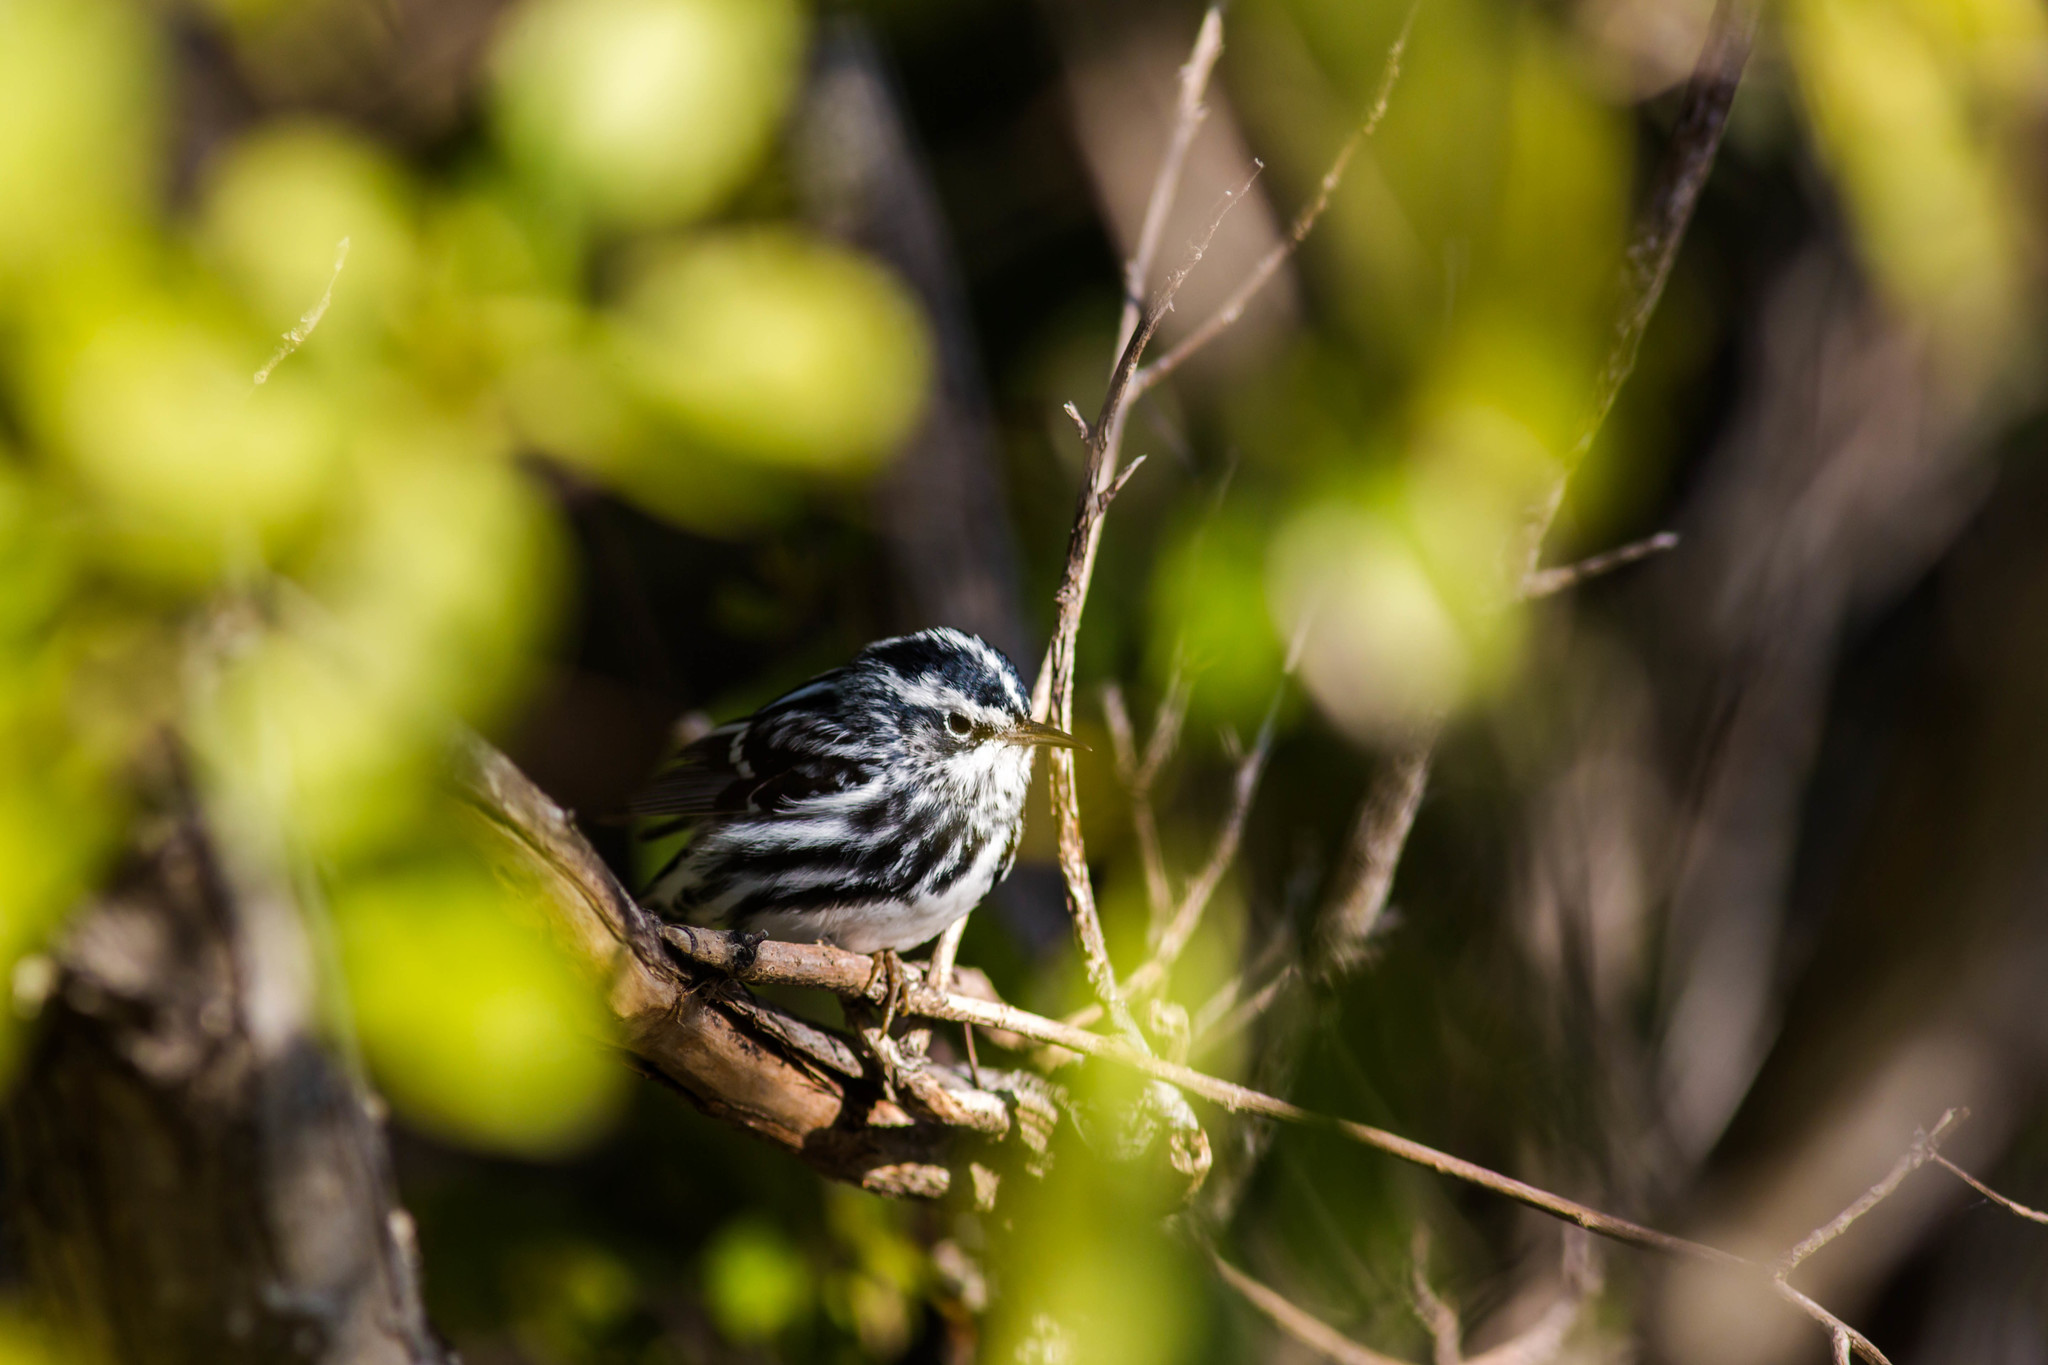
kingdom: Animalia
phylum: Chordata
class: Aves
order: Passeriformes
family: Parulidae
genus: Mniotilta
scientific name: Mniotilta varia
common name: Black-and-white warbler
